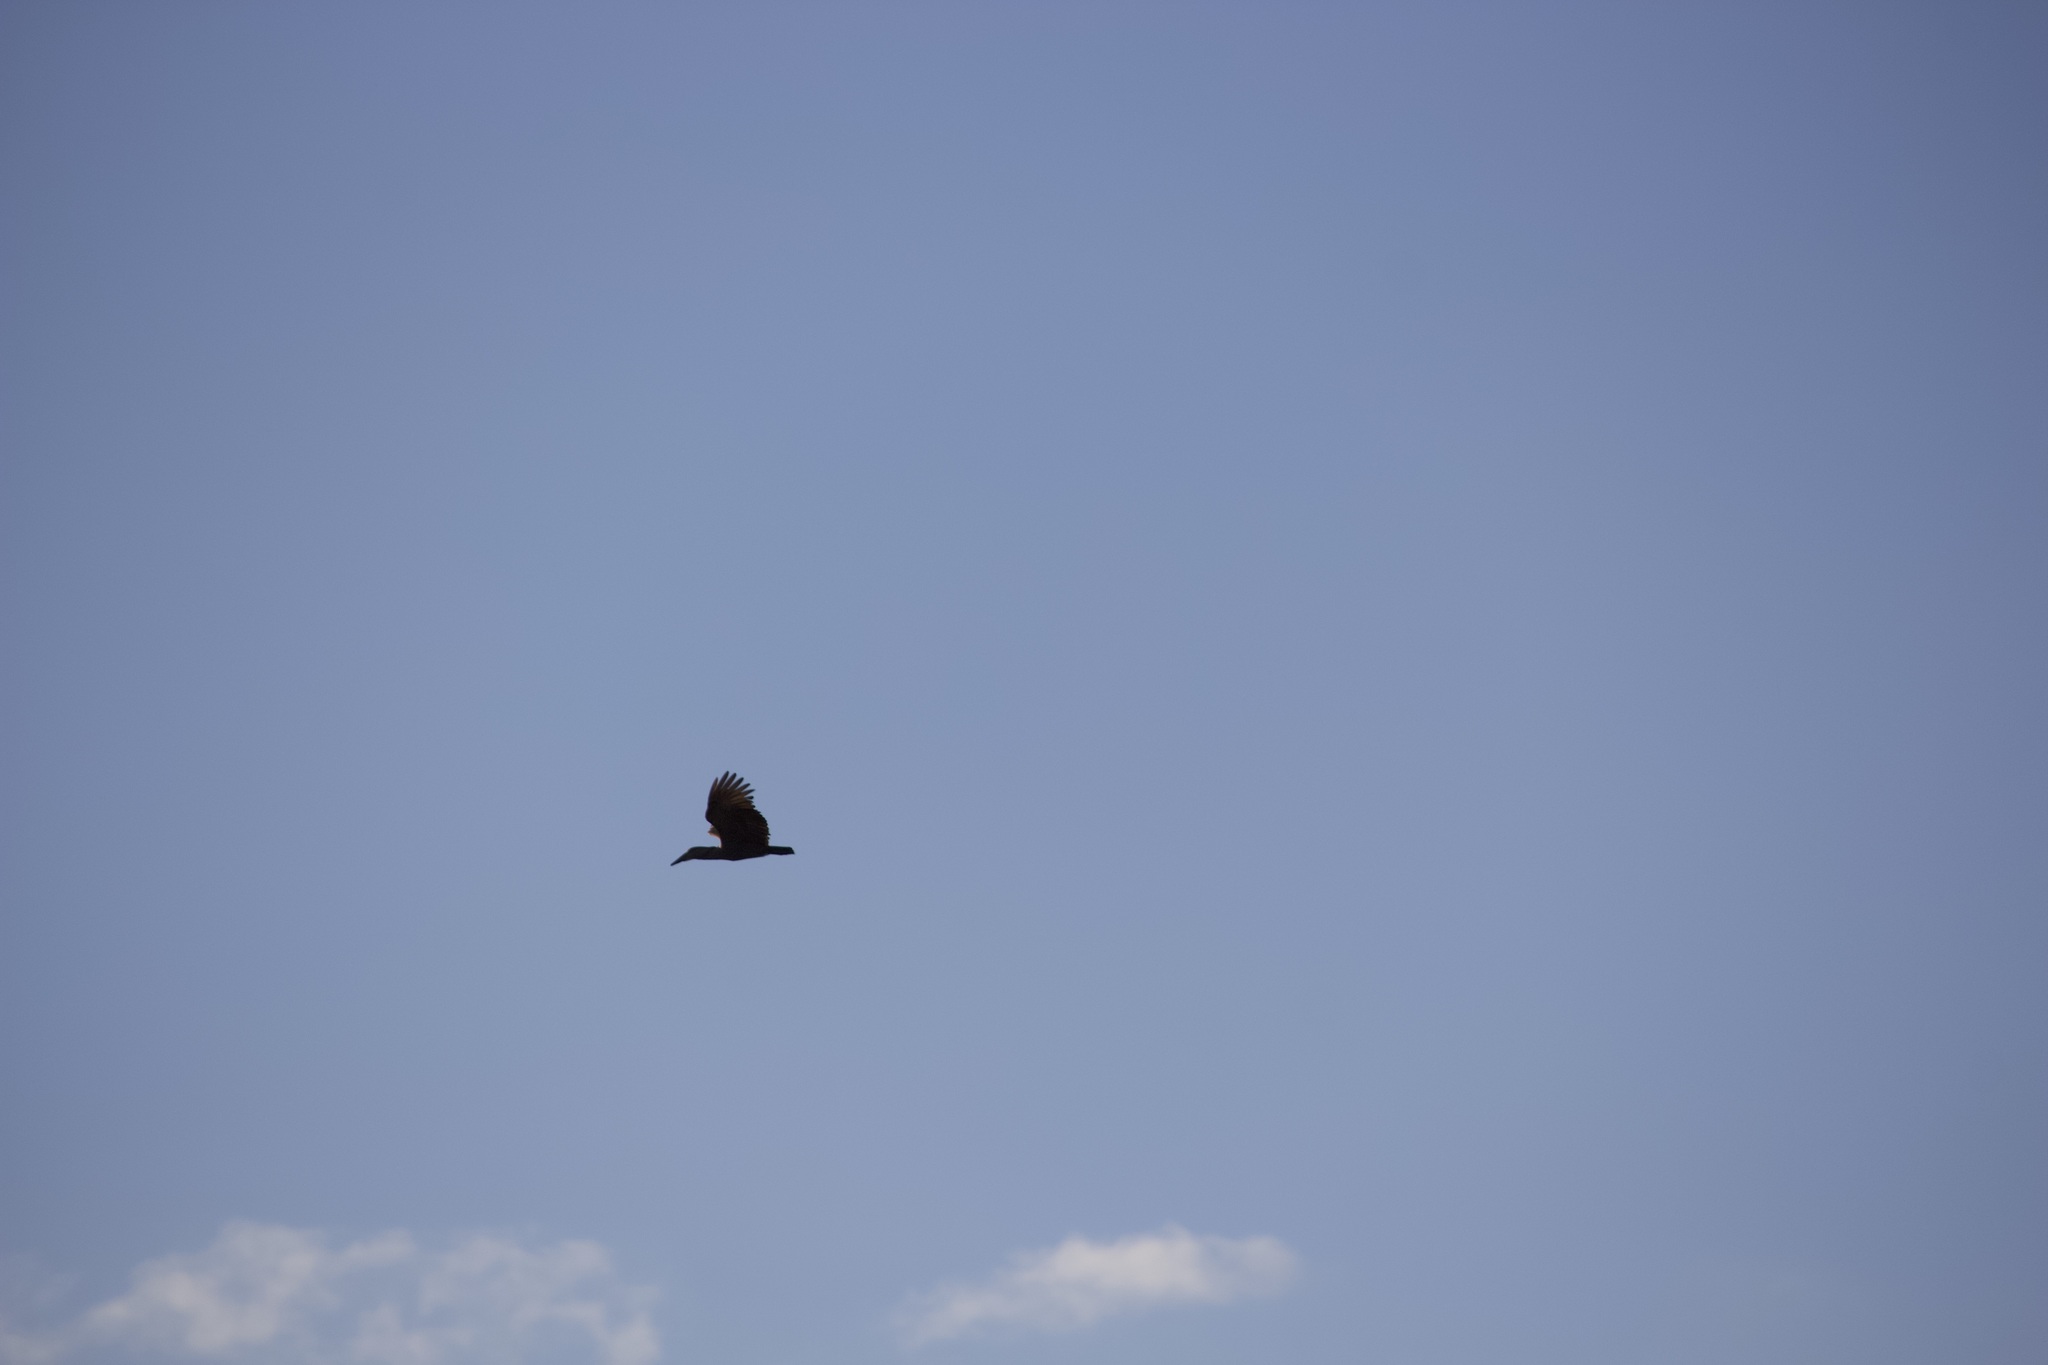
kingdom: Animalia
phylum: Chordata
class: Aves
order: Pelecaniformes
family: Scopidae
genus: Scopus
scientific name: Scopus umbretta
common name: Hamerkop
